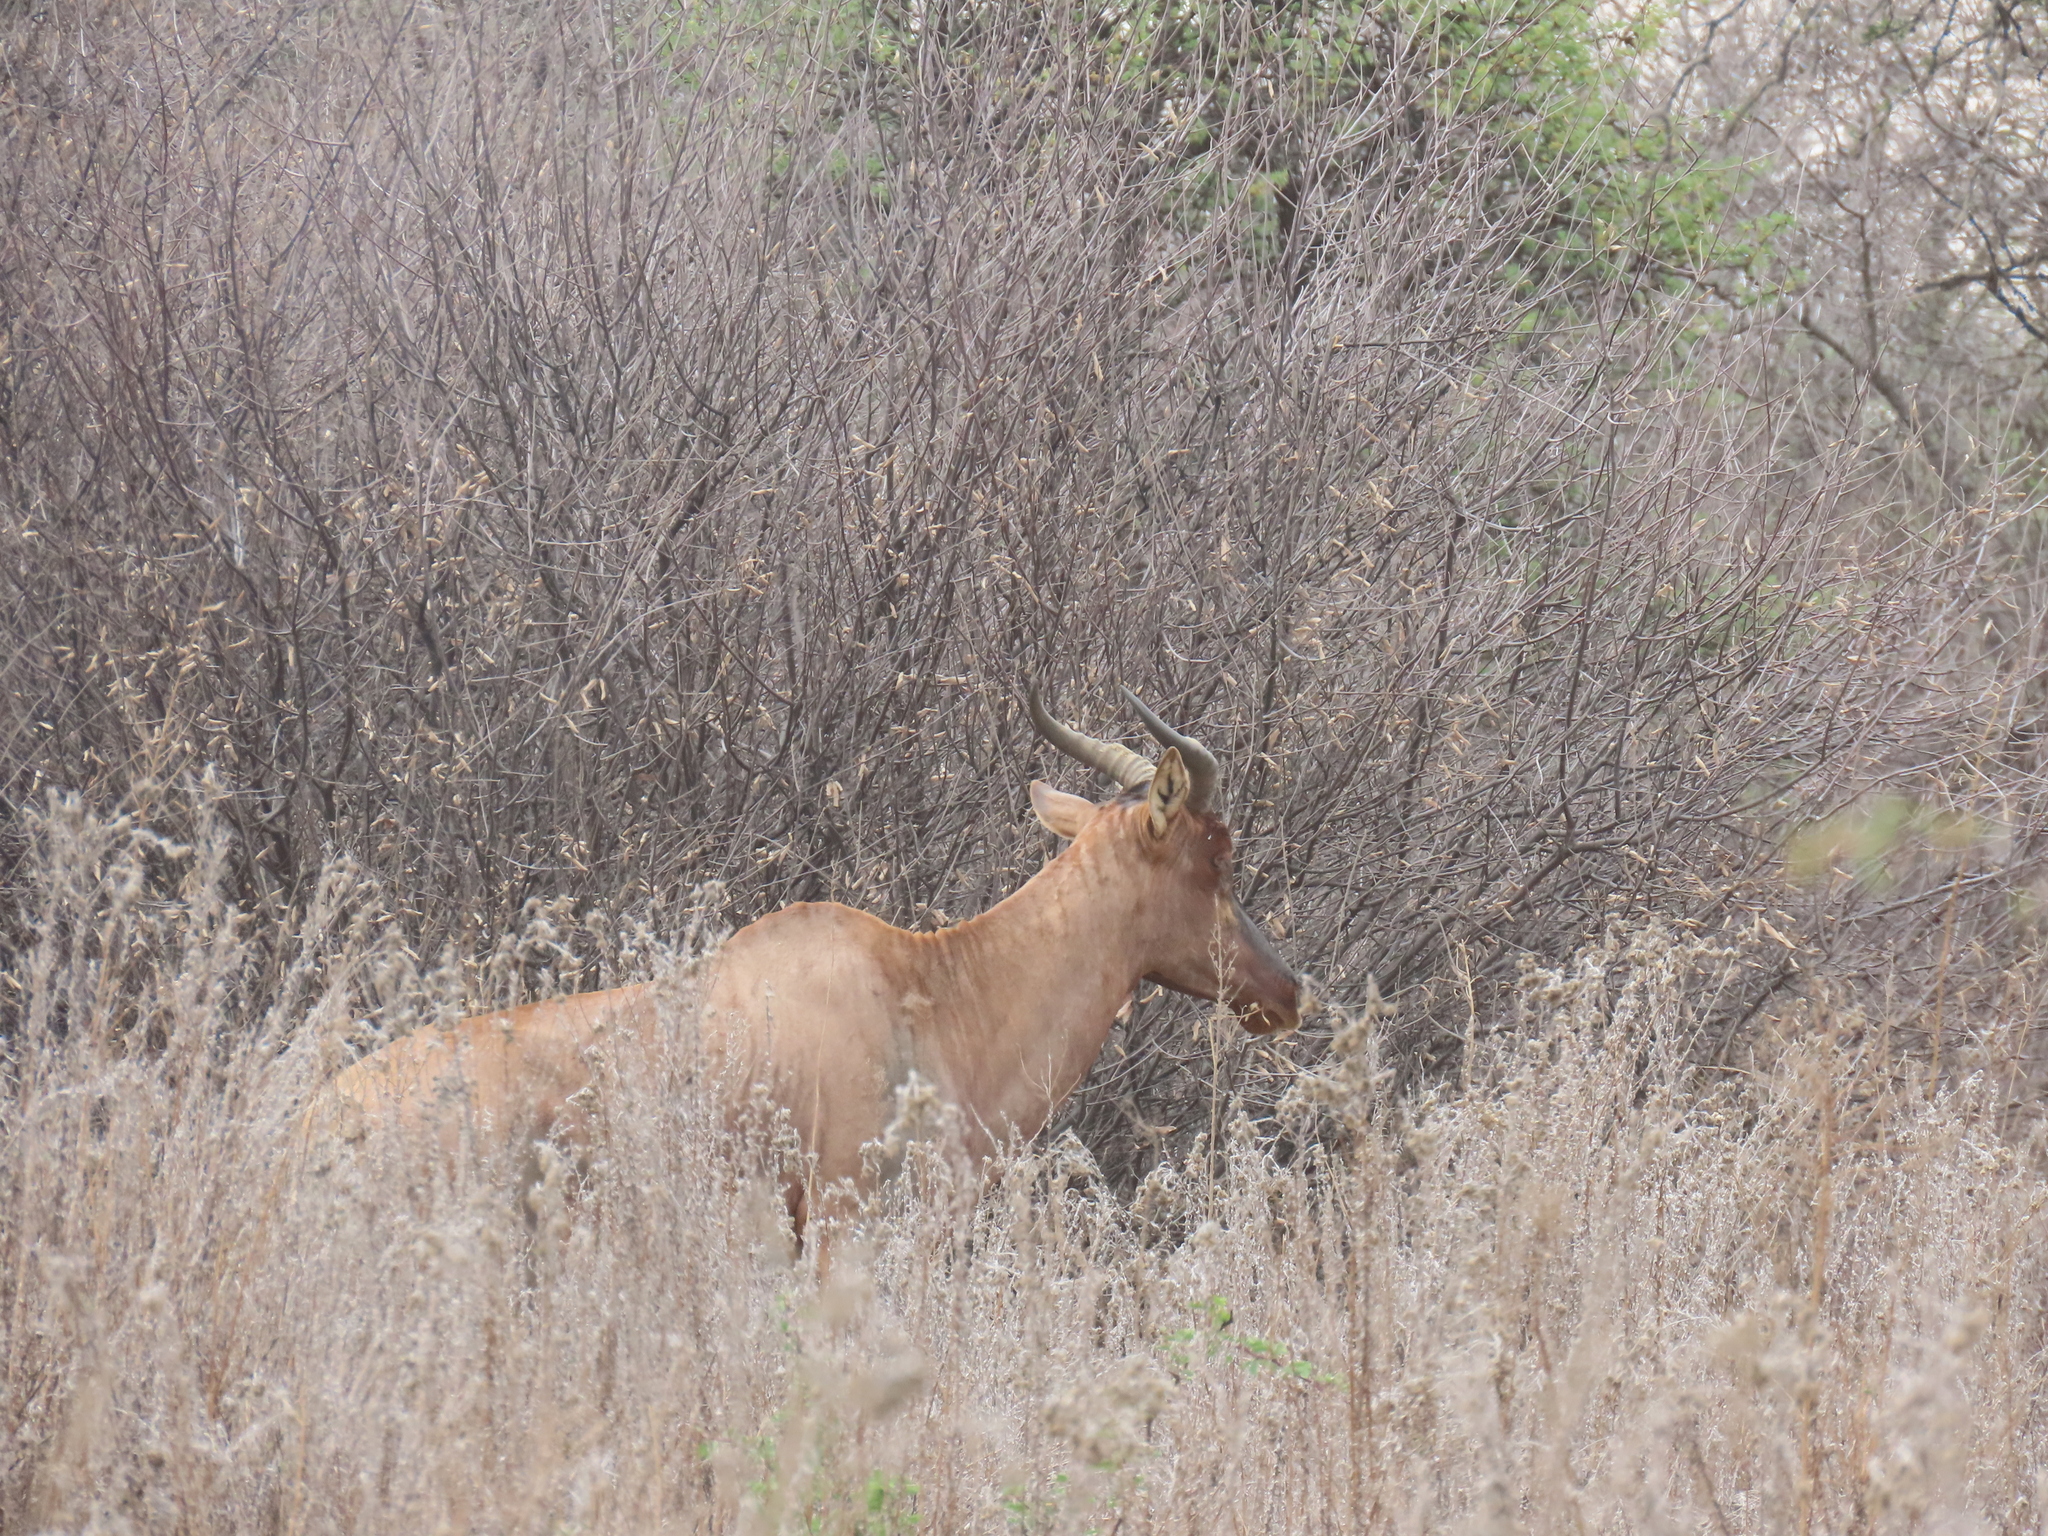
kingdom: Animalia
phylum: Chordata
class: Mammalia
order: Artiodactyla
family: Bovidae
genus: Damaliscus
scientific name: Damaliscus lunatus
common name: Common tsessebe
